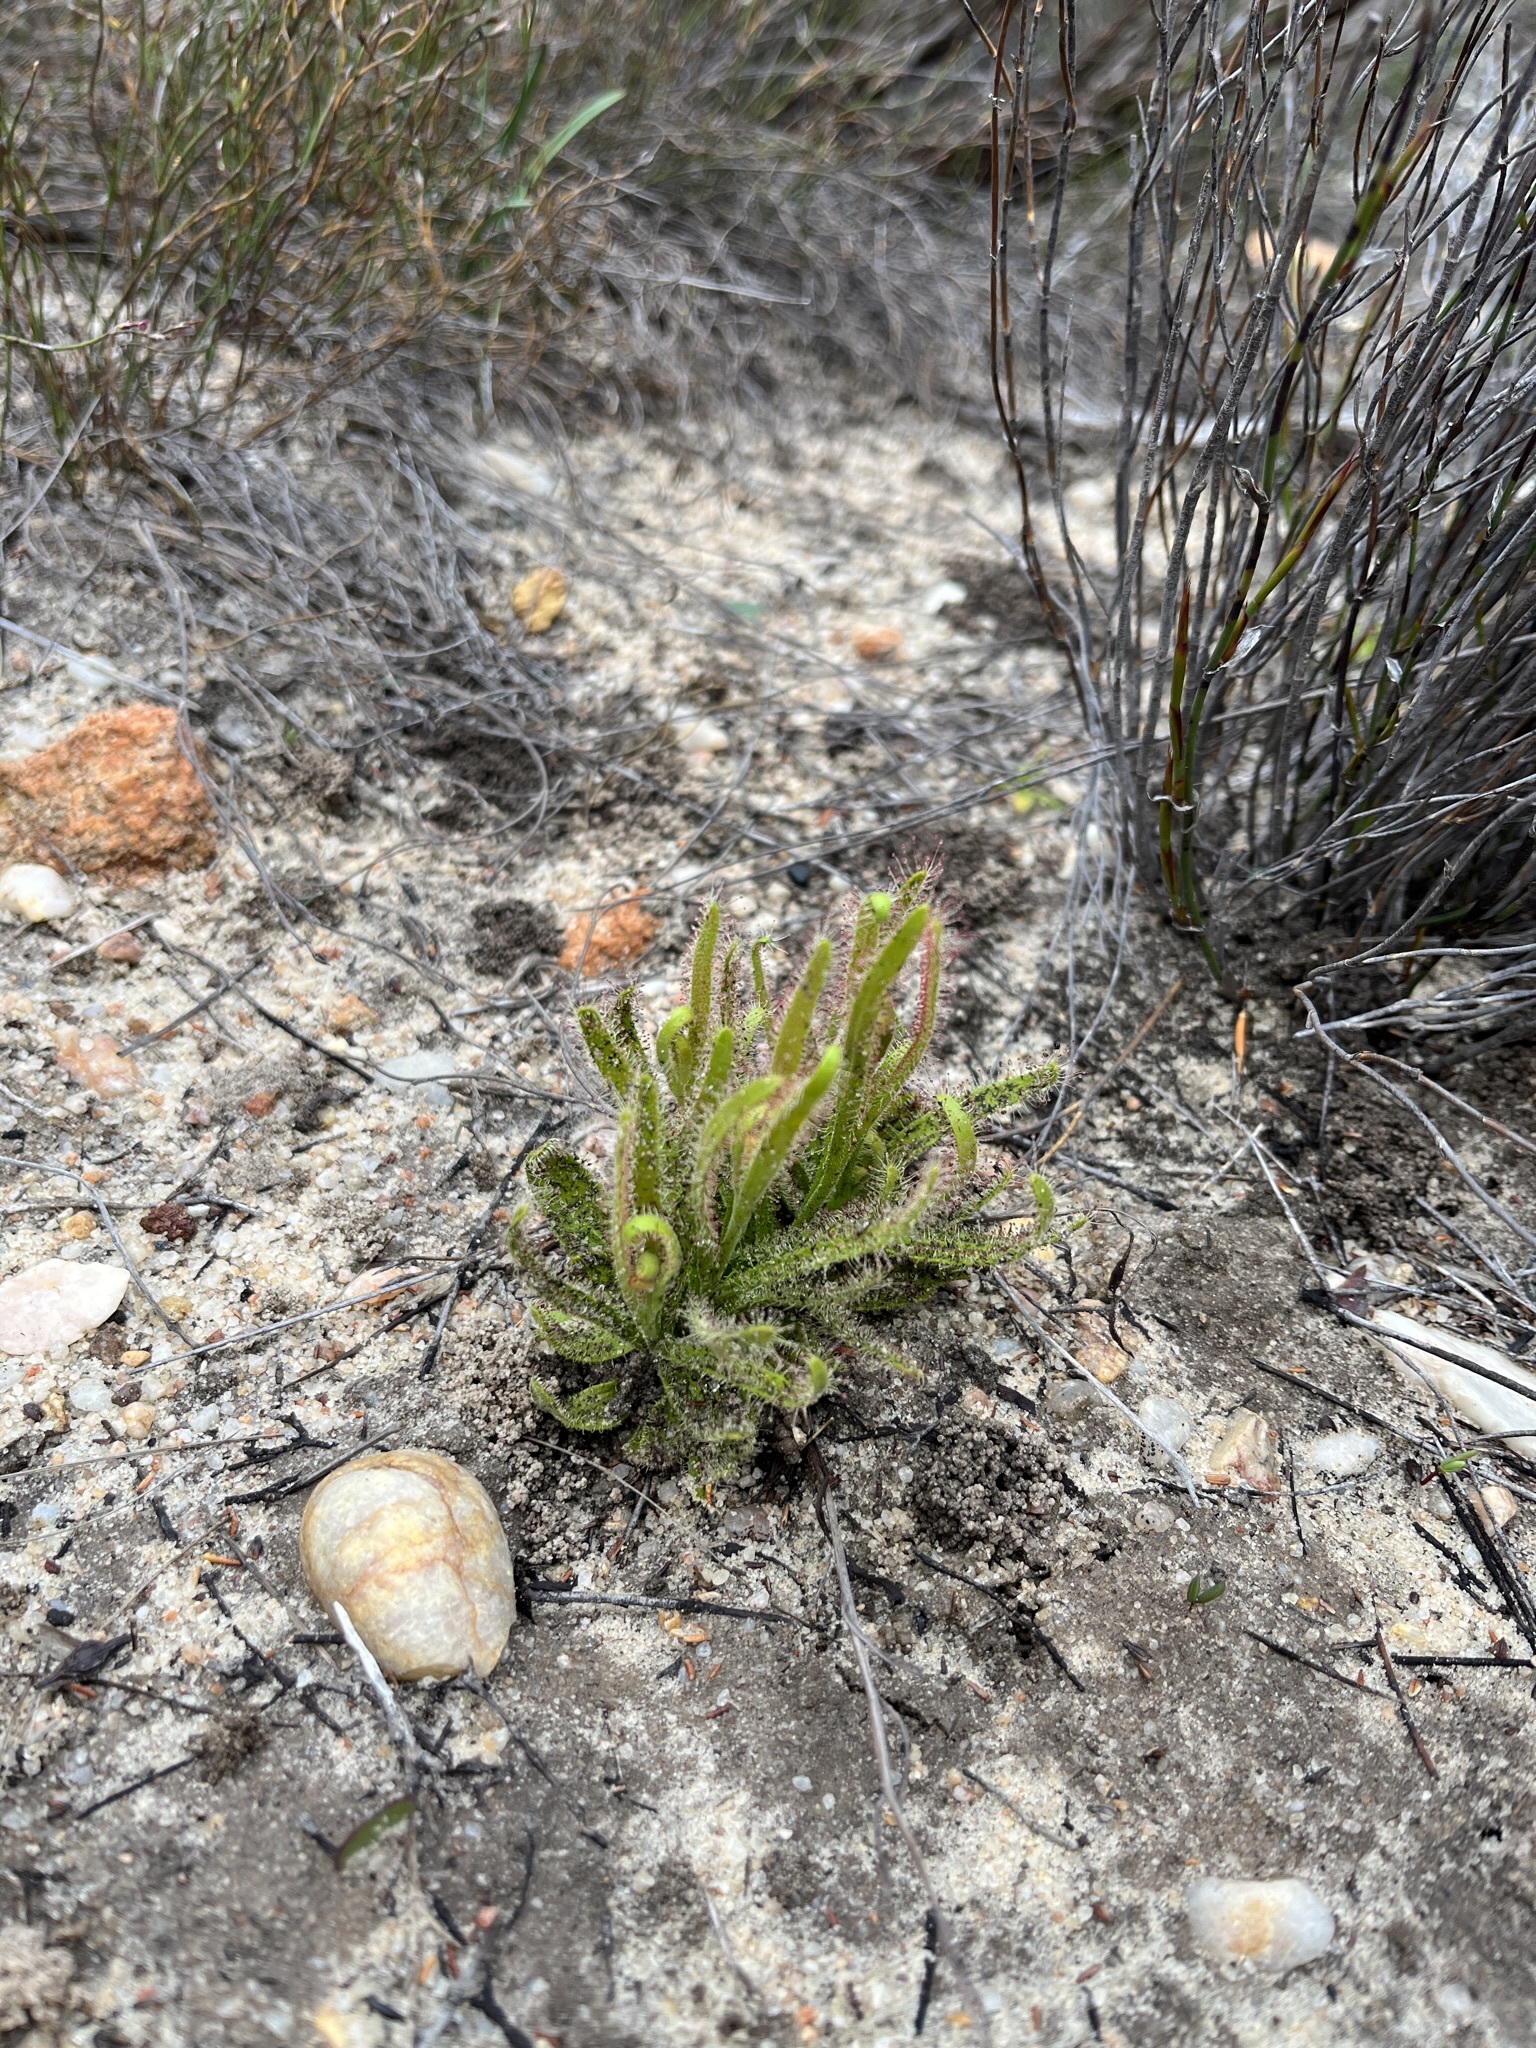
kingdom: Plantae
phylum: Tracheophyta
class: Magnoliopsida
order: Caryophyllales
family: Droseraceae
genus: Drosera
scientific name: Drosera cistiflora
